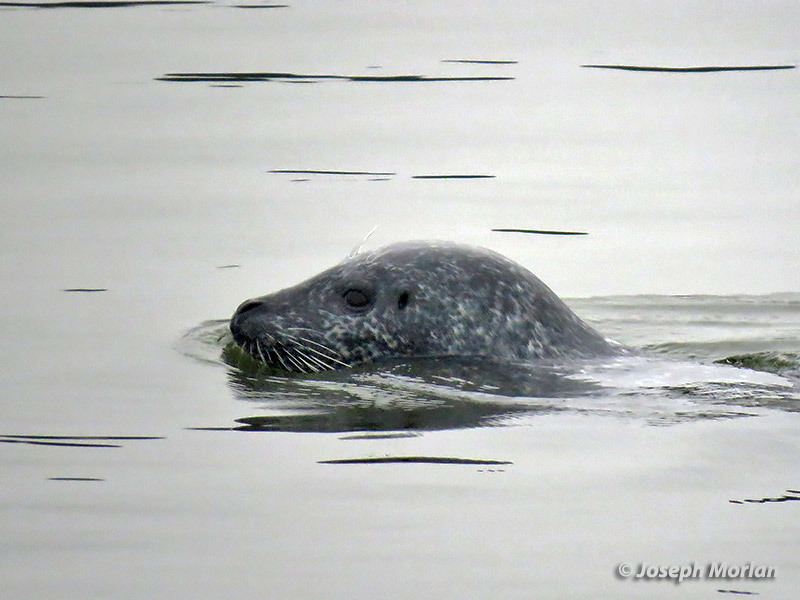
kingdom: Animalia
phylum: Chordata
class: Mammalia
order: Carnivora
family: Phocidae
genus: Phoca
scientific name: Phoca vitulina
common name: Harbor seal
